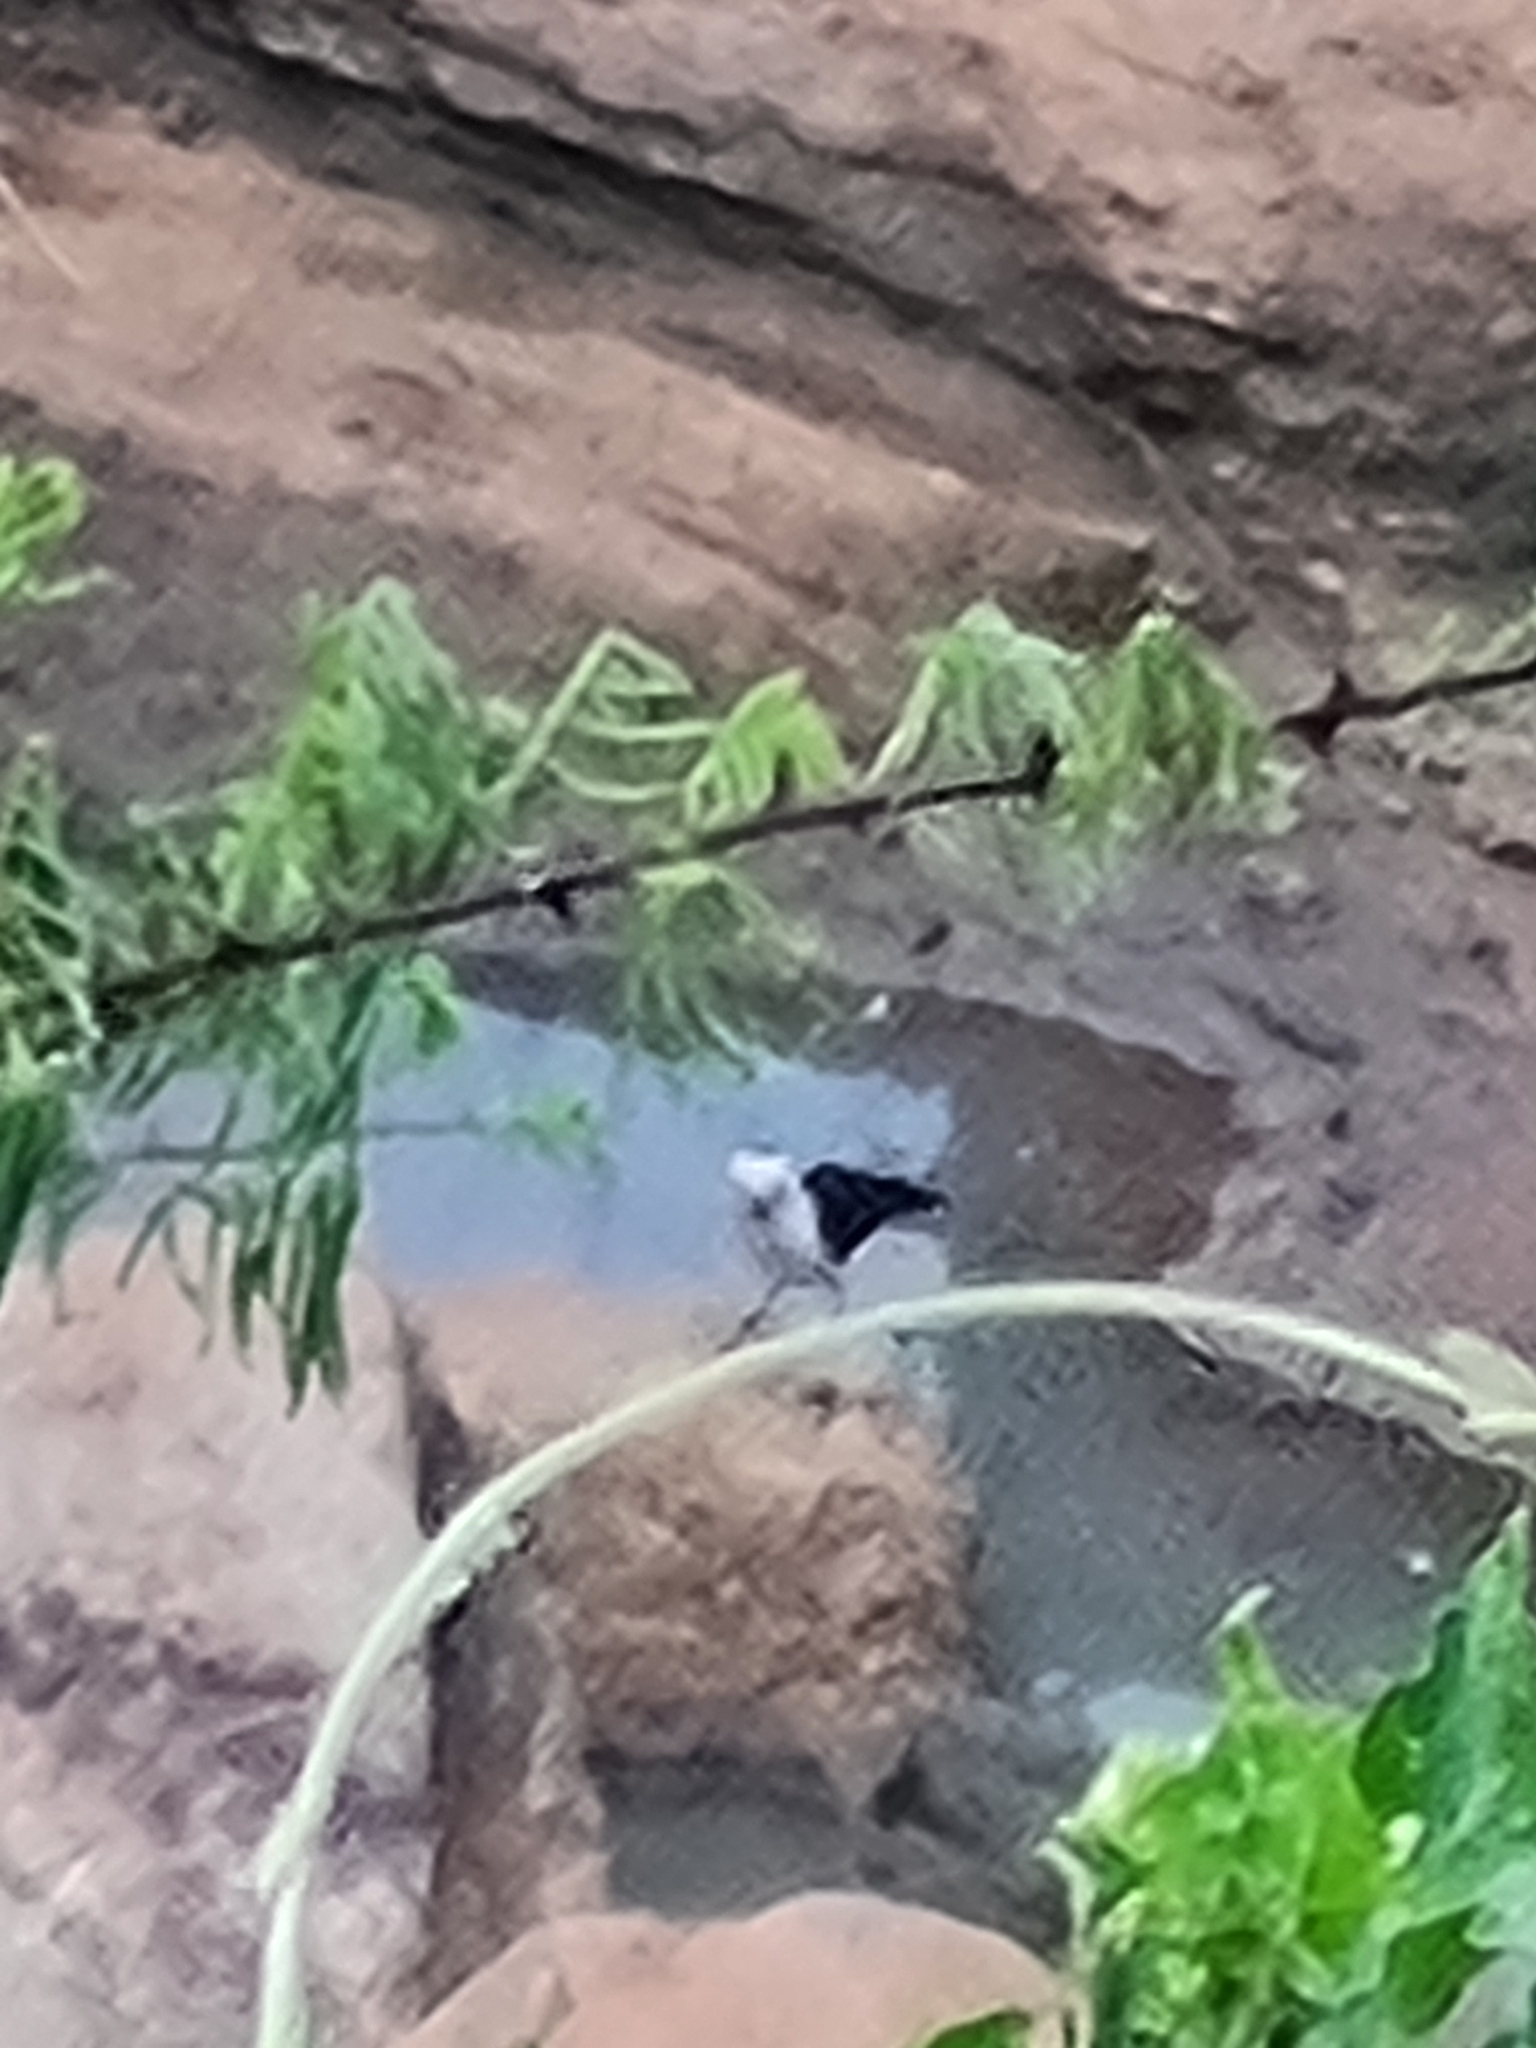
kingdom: Animalia
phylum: Chordata
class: Aves
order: Passeriformes
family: Tyrannidae
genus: Fluvicola
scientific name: Fluvicola pica
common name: Pied water-tyrant
